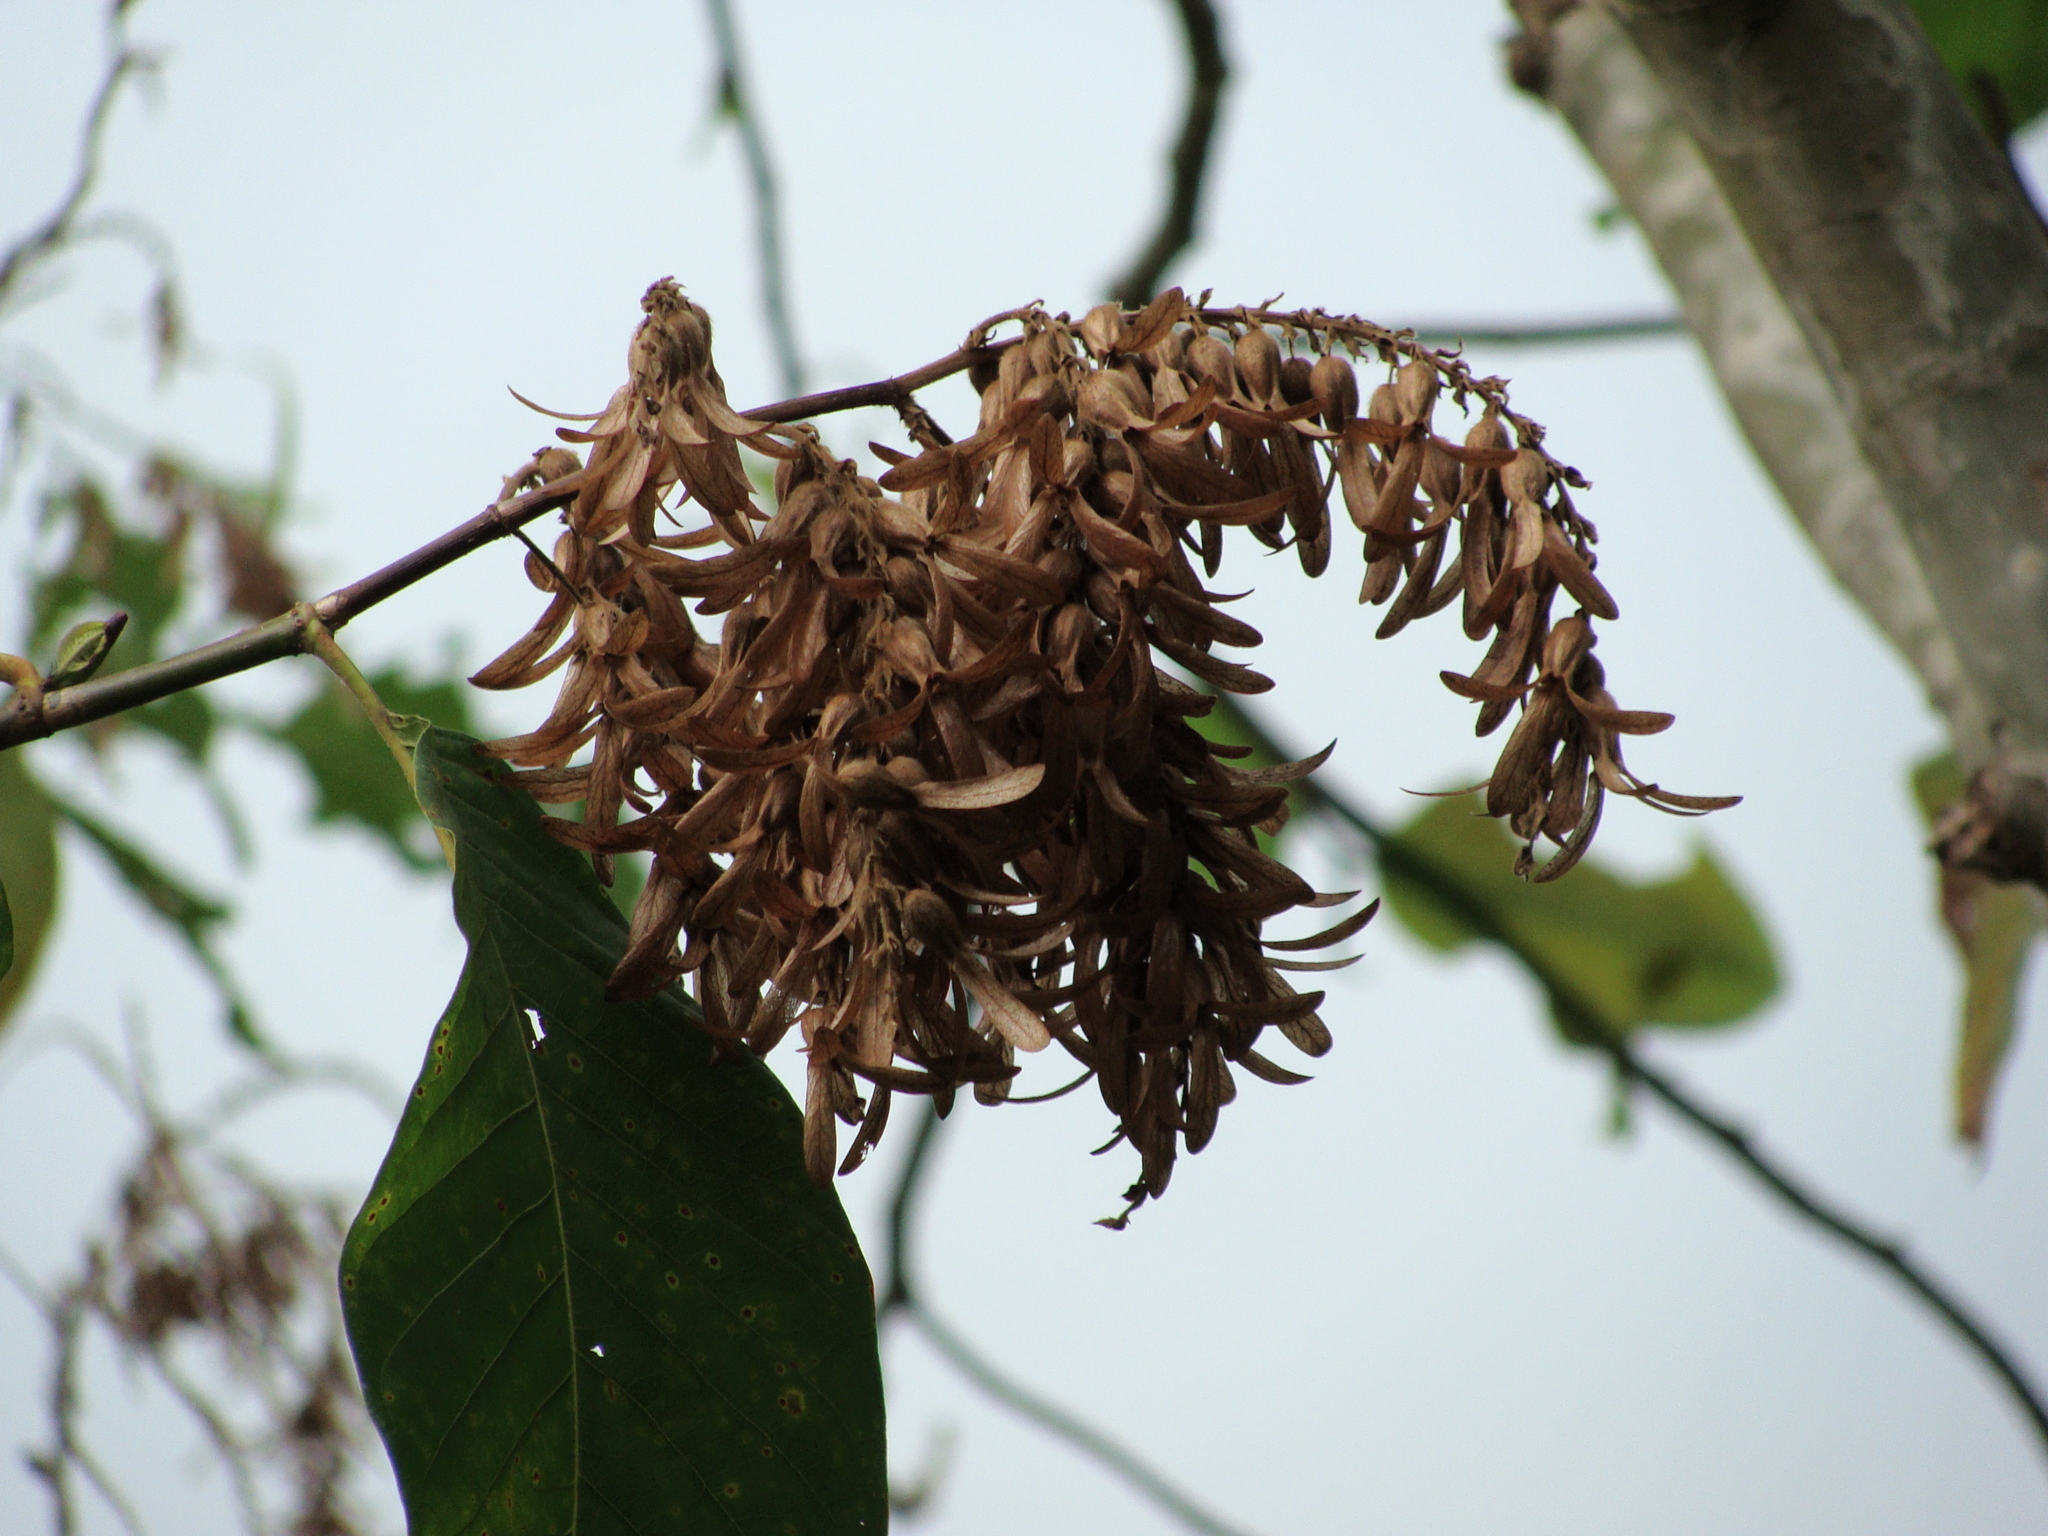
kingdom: Plantae
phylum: Tracheophyta
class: Magnoliopsida
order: Caryophyllales
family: Polygonaceae
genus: Triplaris
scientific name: Triplaris melaenodendron
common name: Long john
